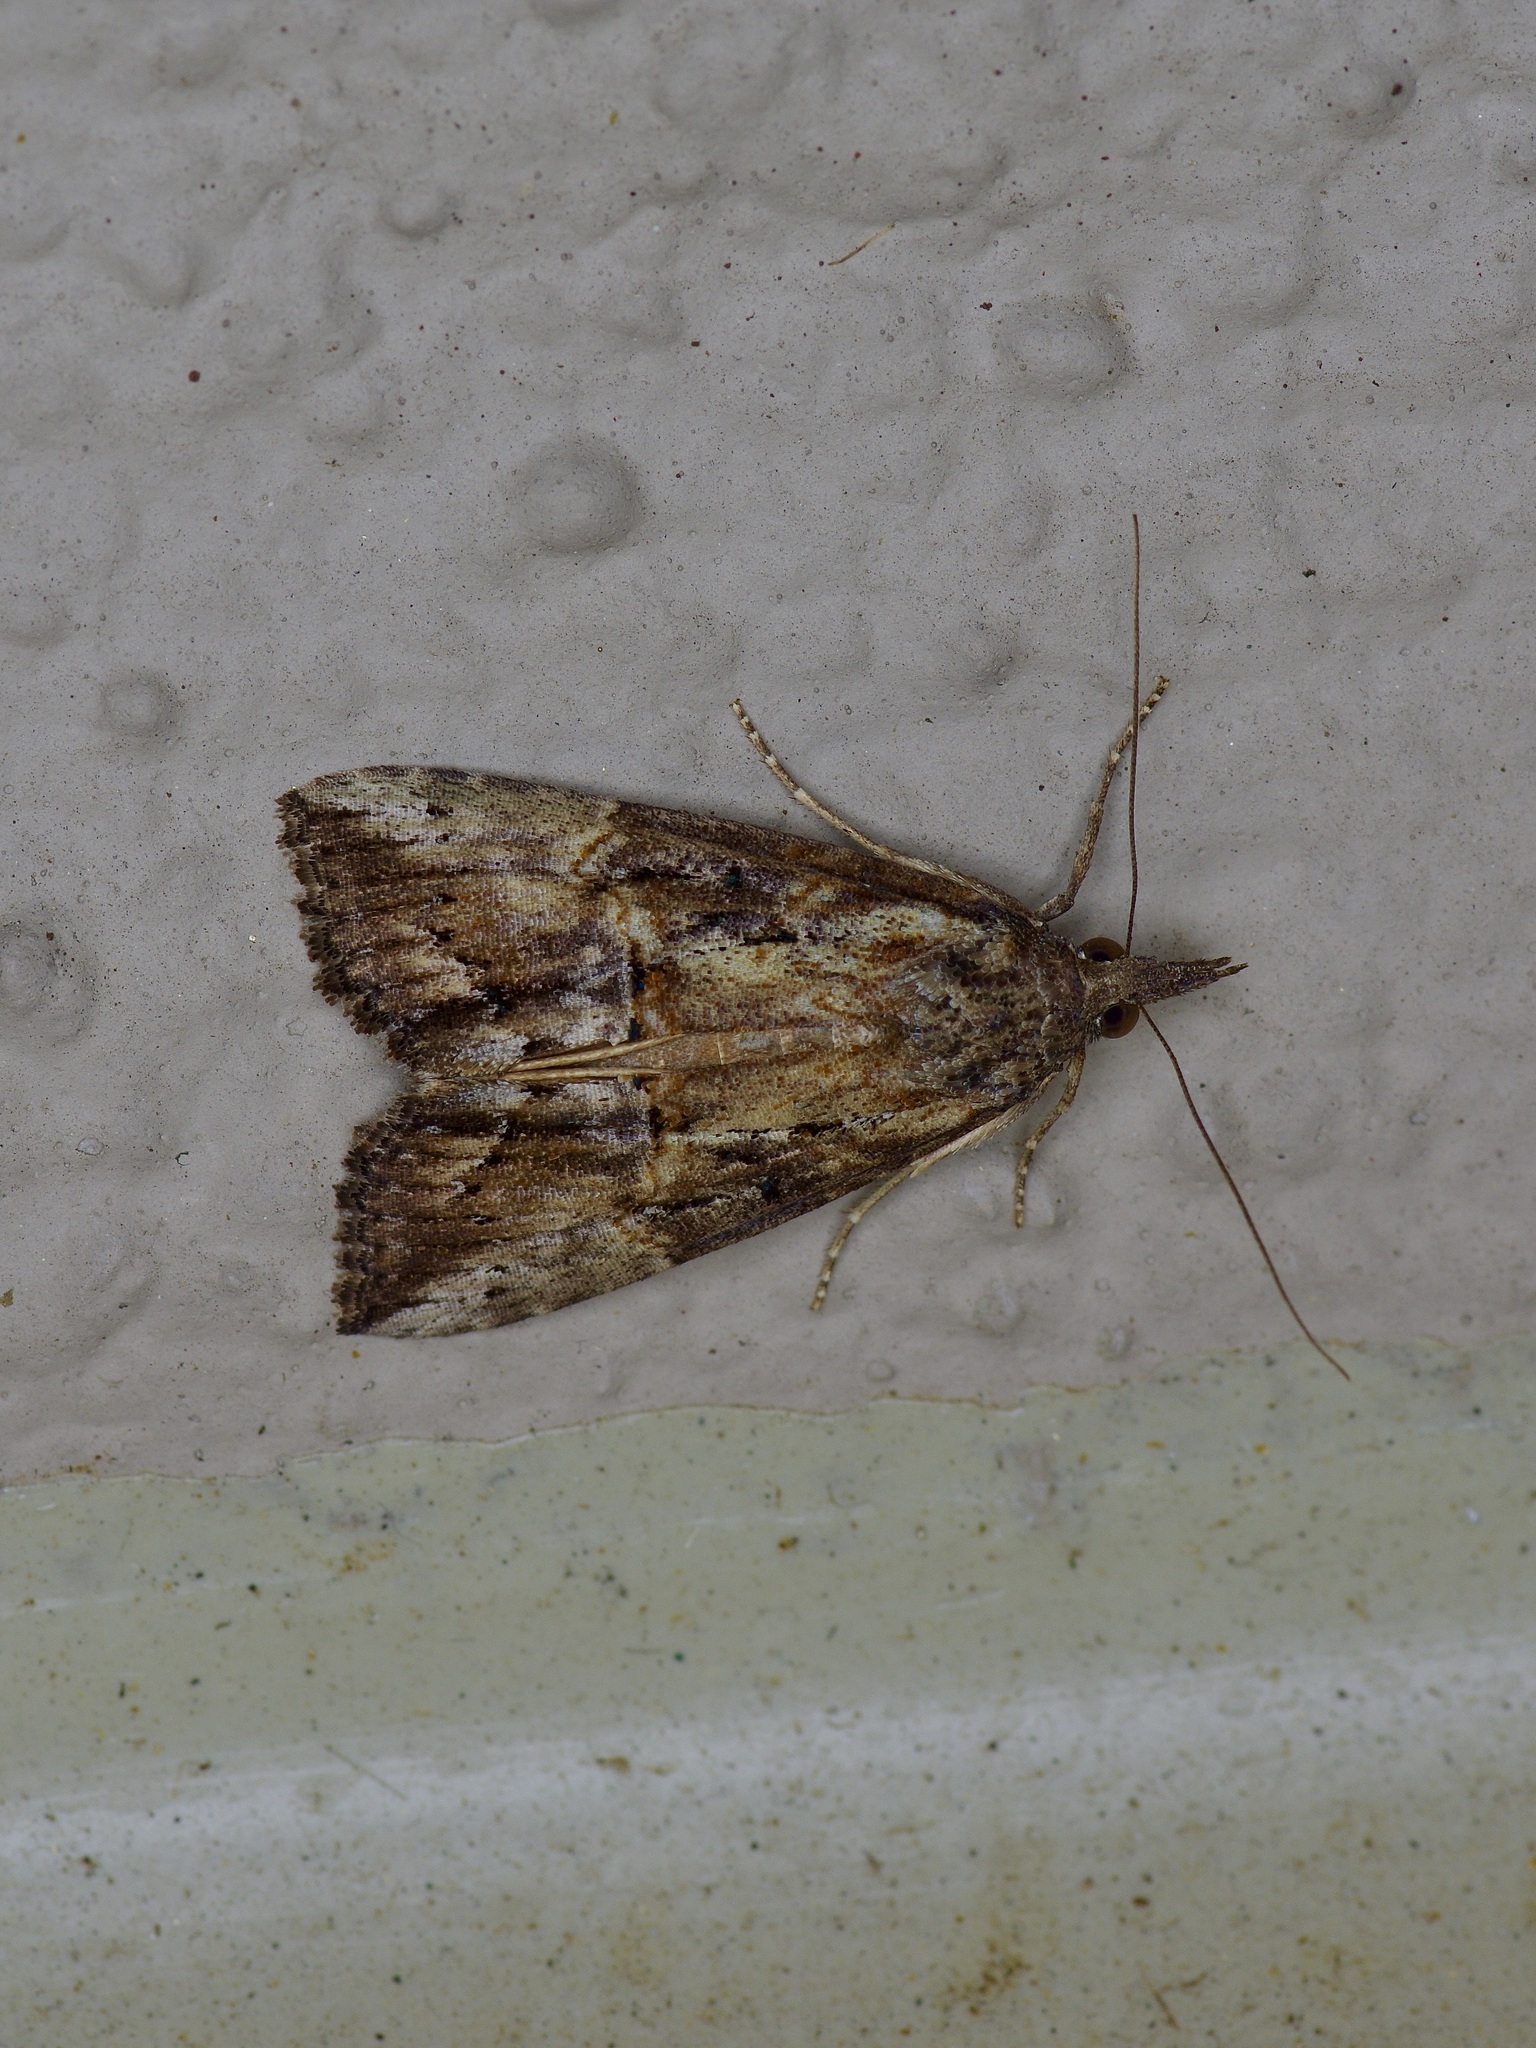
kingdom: Animalia
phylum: Arthropoda
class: Insecta
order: Lepidoptera
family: Erebidae
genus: Hypena
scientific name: Hypena scabra
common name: Green cloverworm
